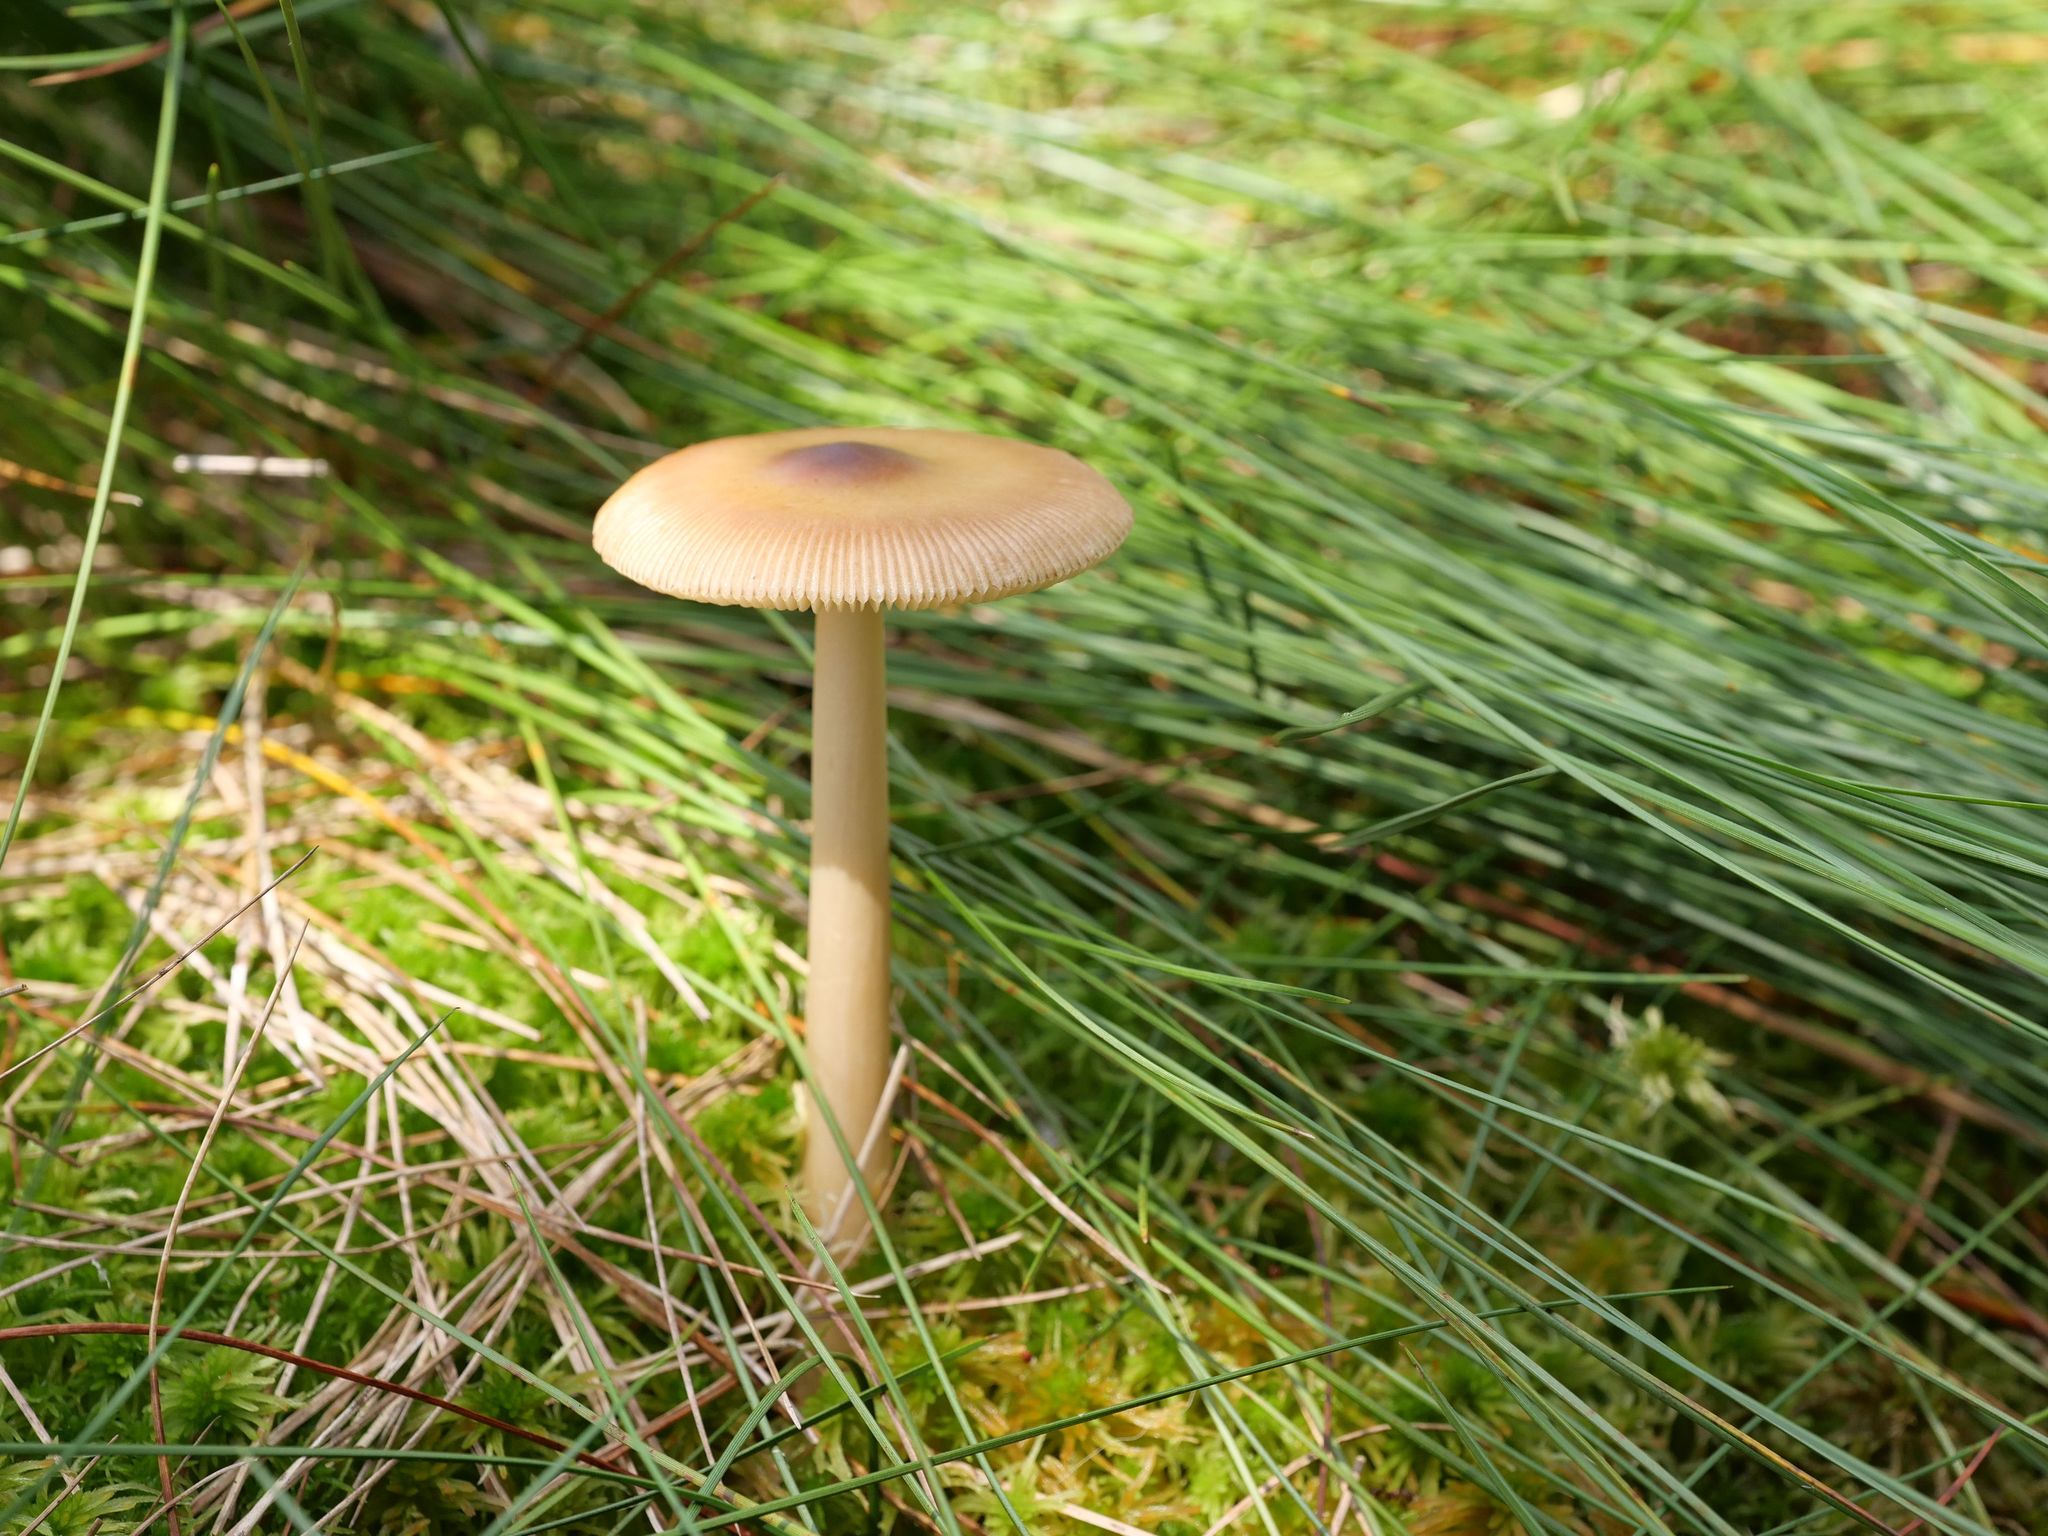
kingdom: Fungi
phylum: Basidiomycota
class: Agaricomycetes
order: Agaricales
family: Amanitaceae
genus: Amanita
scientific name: Amanita fulva
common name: Tawny grisette
